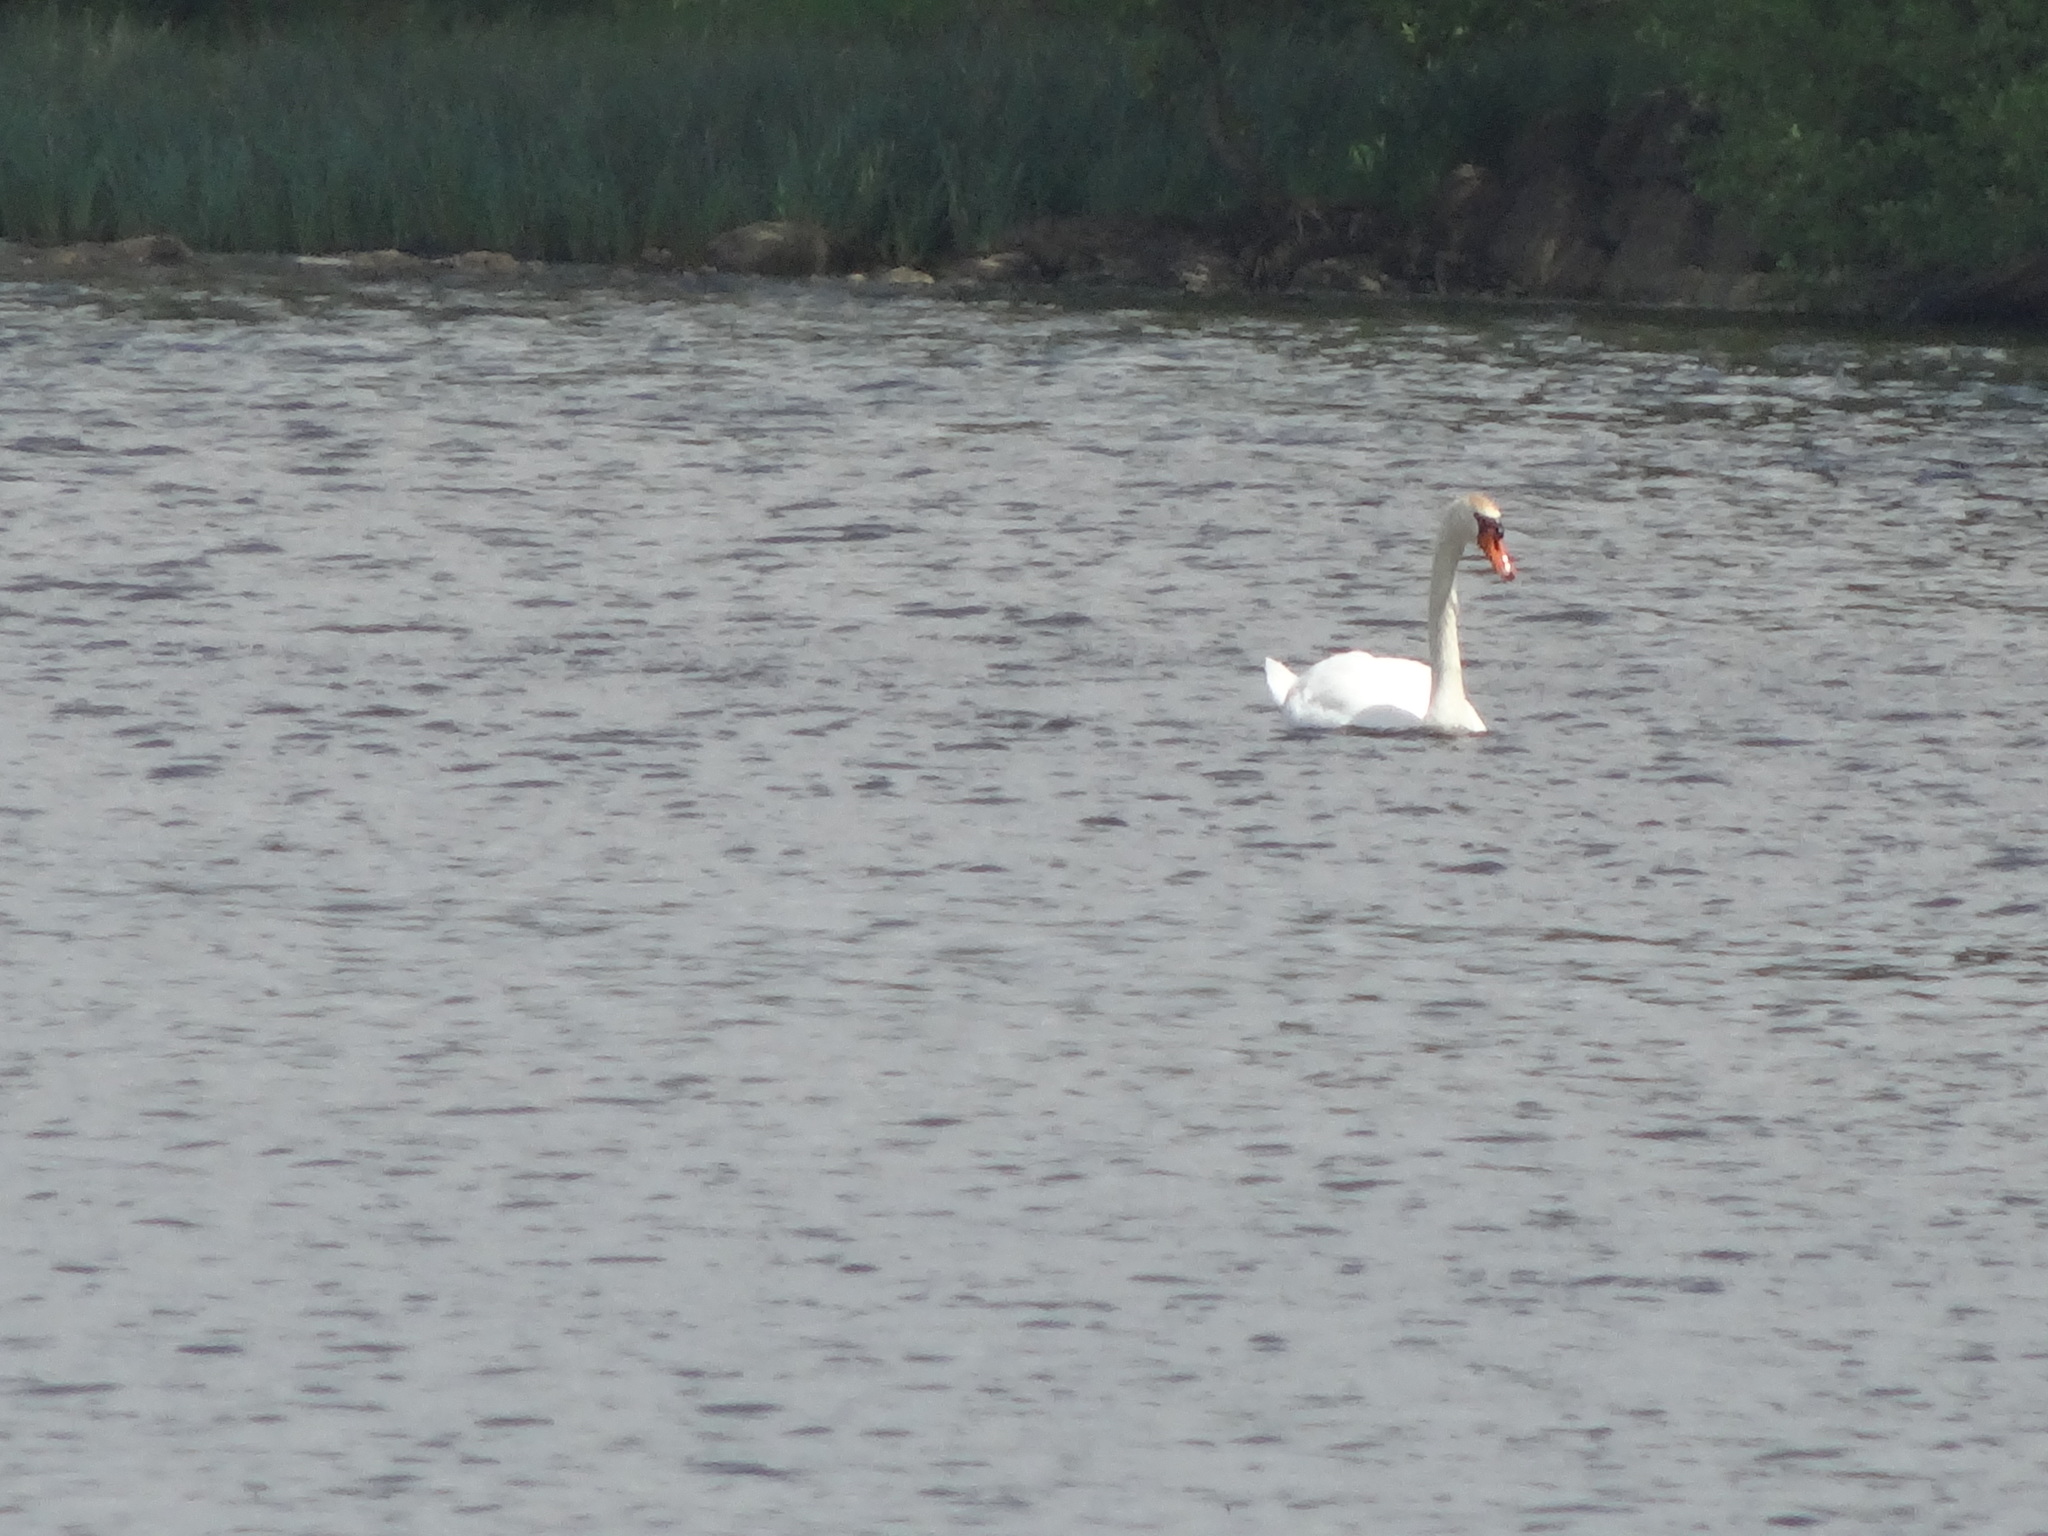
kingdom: Animalia
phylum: Chordata
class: Aves
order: Anseriformes
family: Anatidae
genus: Cygnus
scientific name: Cygnus olor
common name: Mute swan
